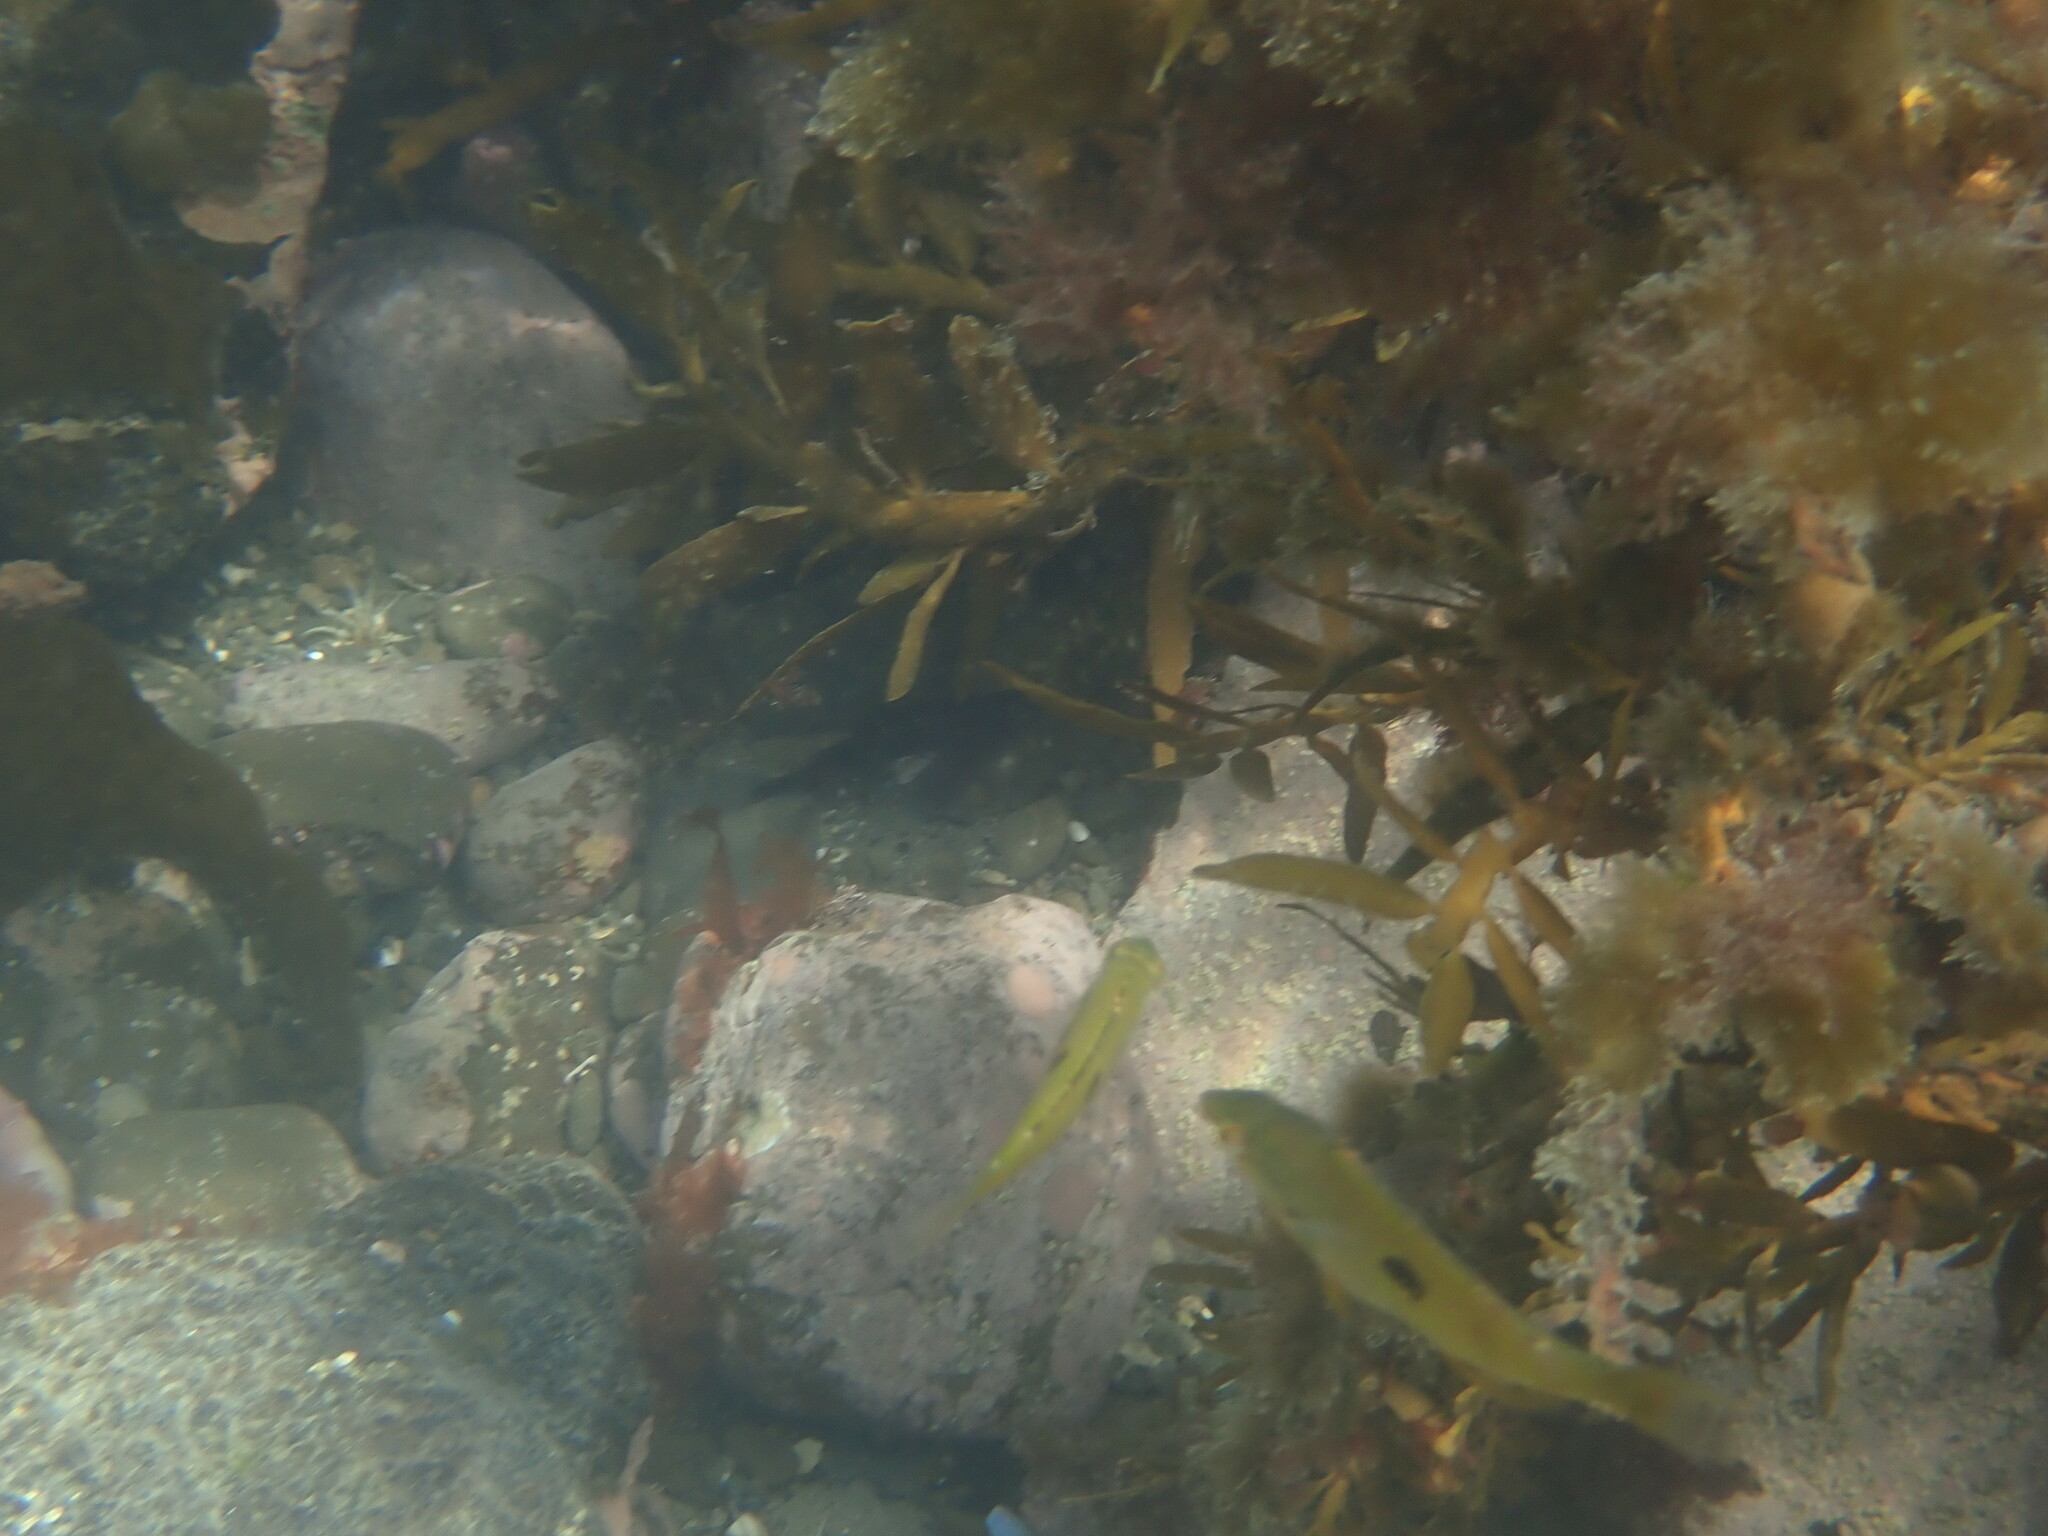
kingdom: Animalia
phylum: Chordata
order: Perciformes
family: Labridae
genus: Notolabrus
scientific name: Notolabrus celidotus
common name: Spotty
